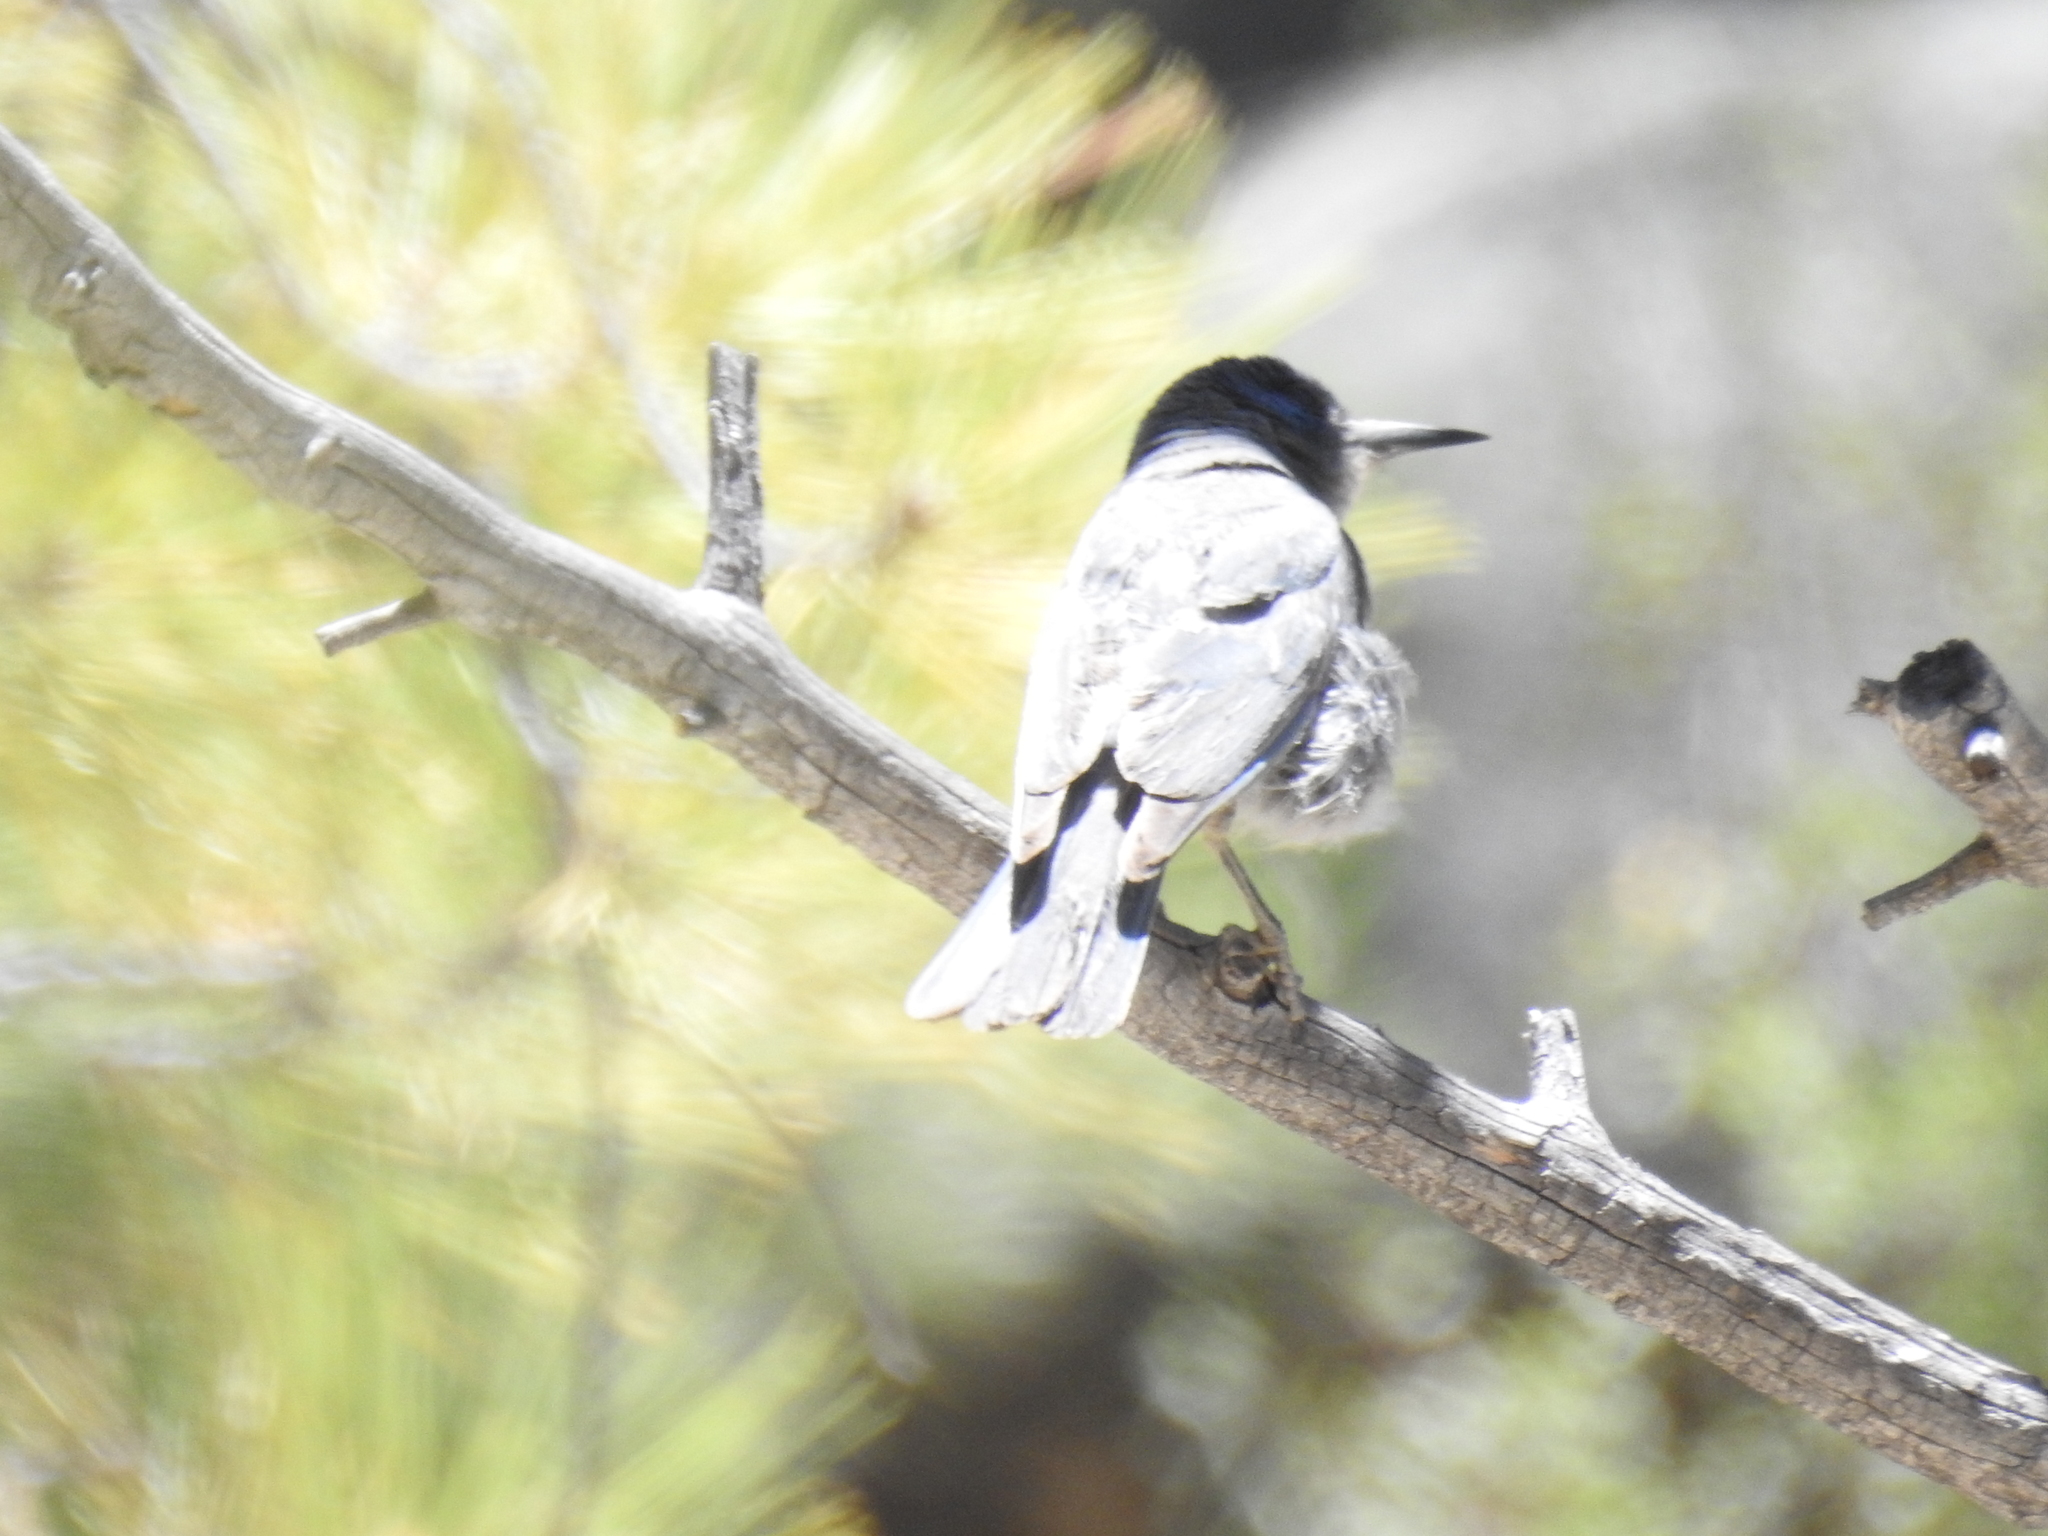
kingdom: Animalia
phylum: Chordata
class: Aves
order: Passeriformes
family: Corvidae
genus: Gymnorhinus
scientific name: Gymnorhinus cyanocephalus
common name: Pinyon jay
